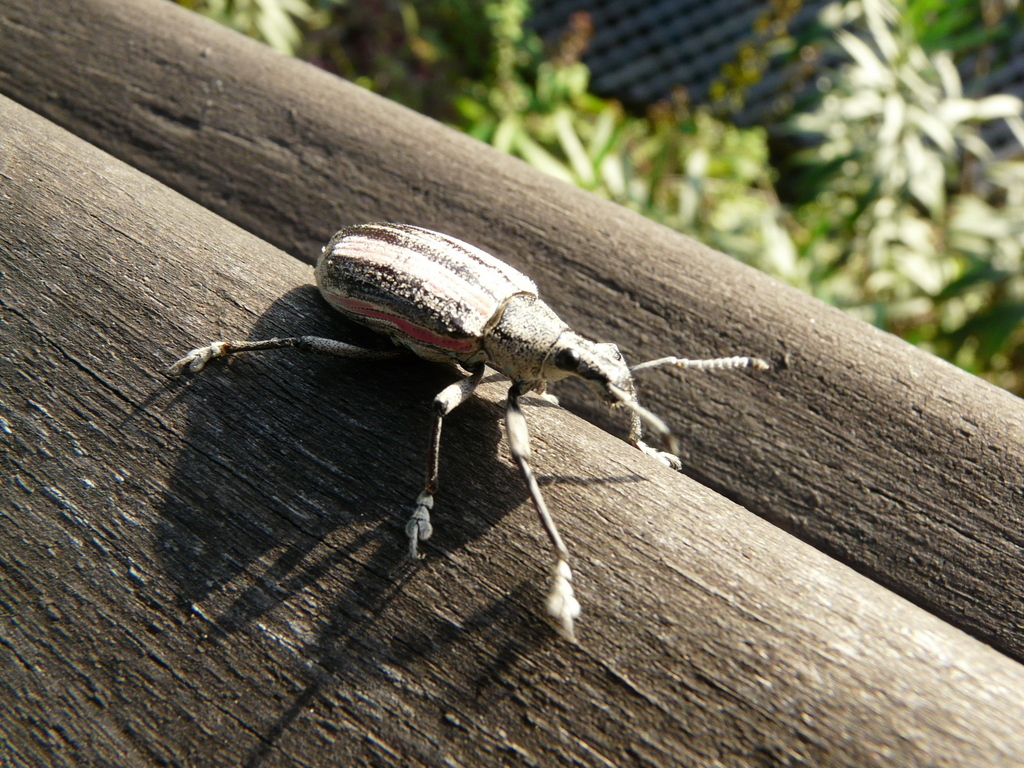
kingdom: Animalia
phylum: Arthropoda
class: Insecta
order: Coleoptera
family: Curculionidae
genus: Exophthalmus
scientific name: Exophthalmus similis
